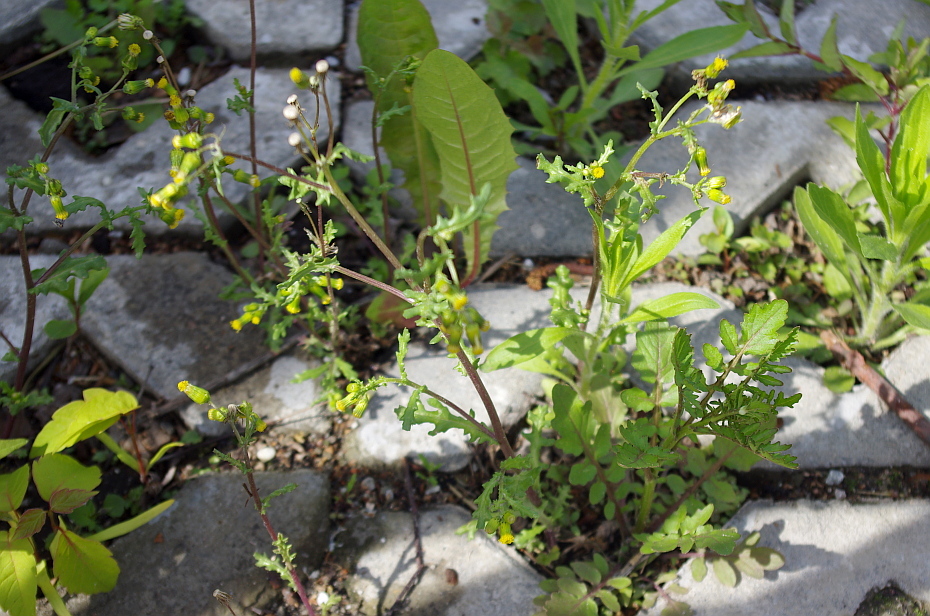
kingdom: Plantae
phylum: Tracheophyta
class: Magnoliopsida
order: Asterales
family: Asteraceae
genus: Senecio
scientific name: Senecio vulgaris
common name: Old-man-in-the-spring
